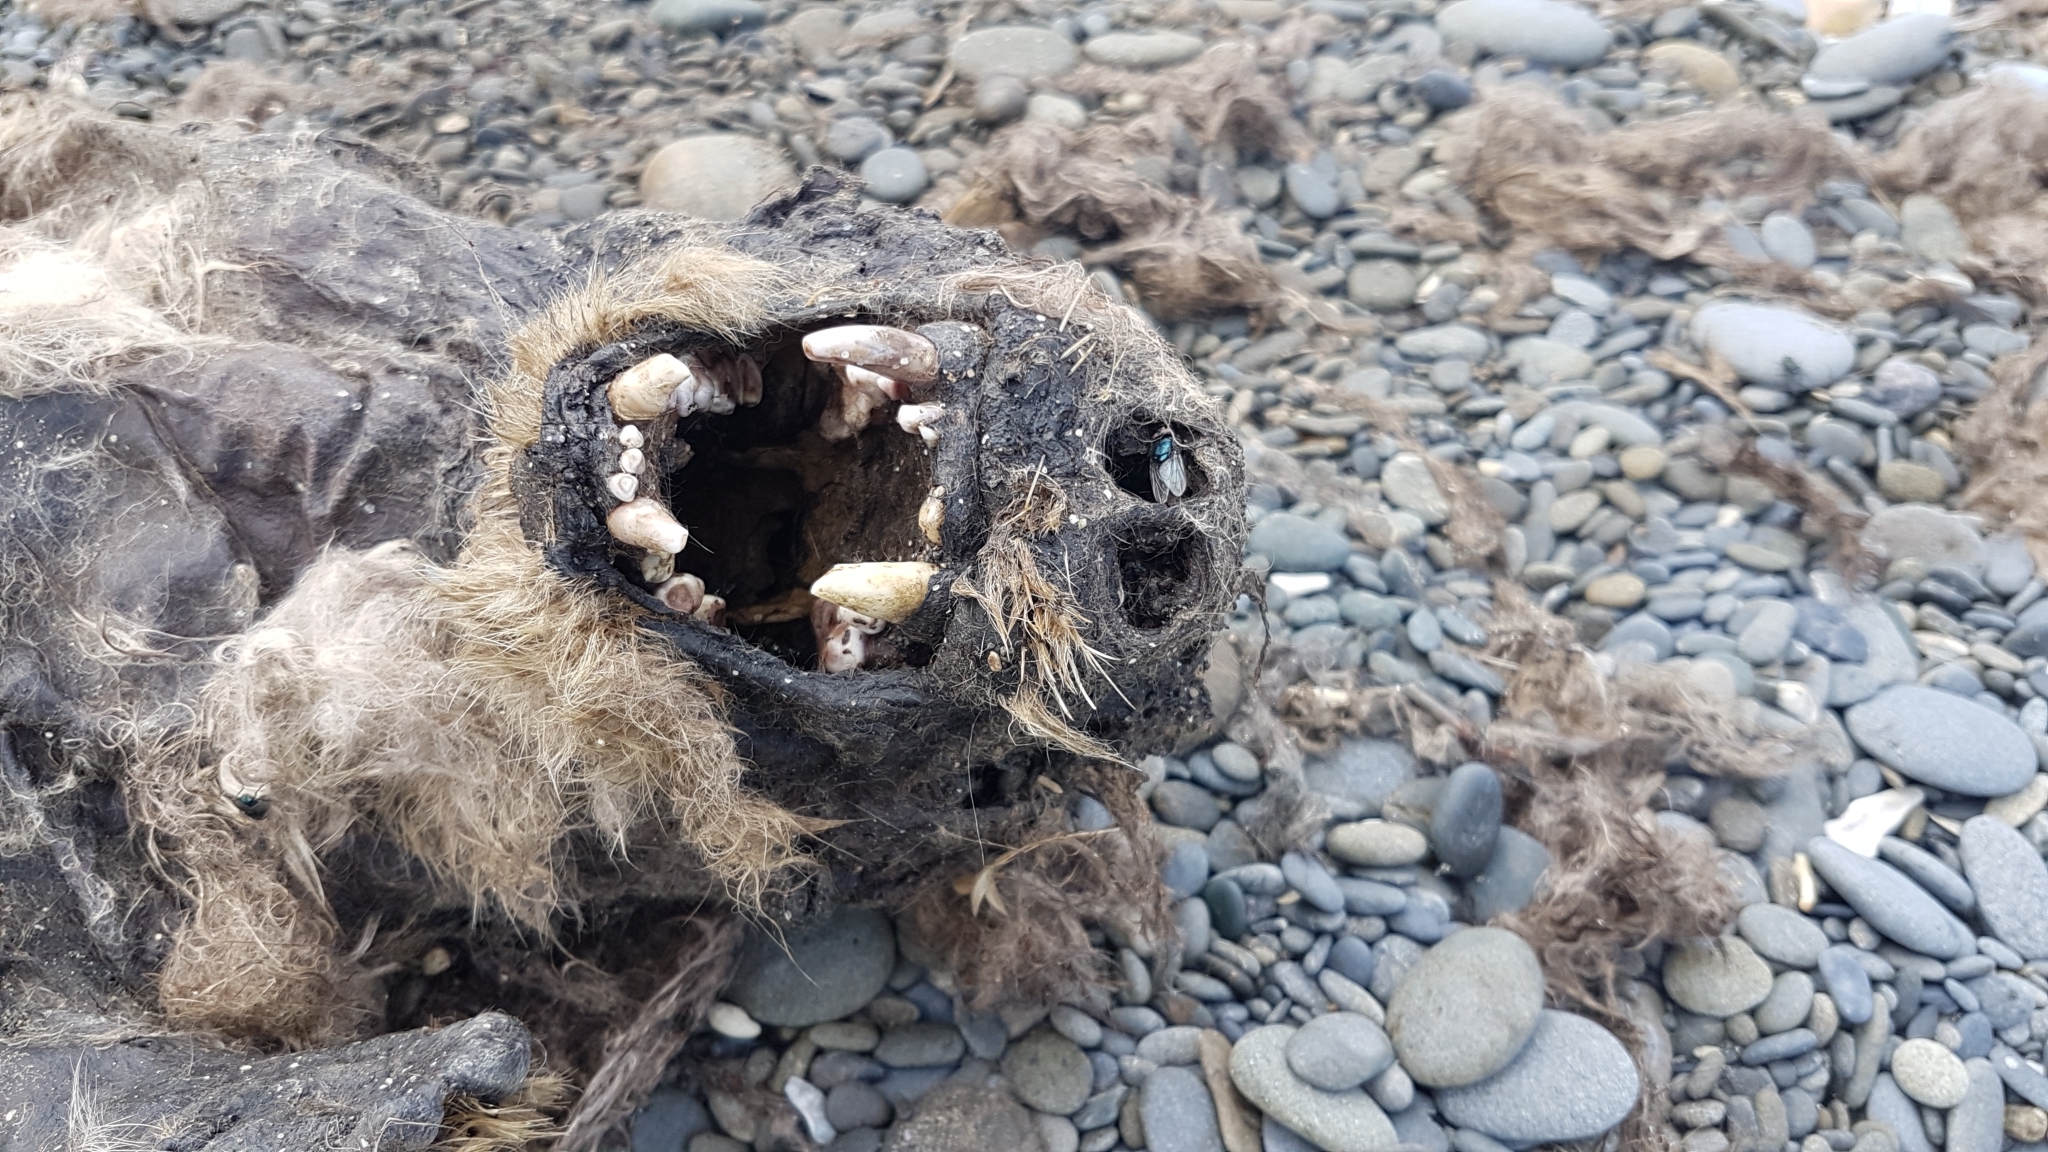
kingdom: Animalia
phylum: Chordata
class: Mammalia
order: Carnivora
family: Mustelidae
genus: Enhydra
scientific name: Enhydra lutris
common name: Sea otter
